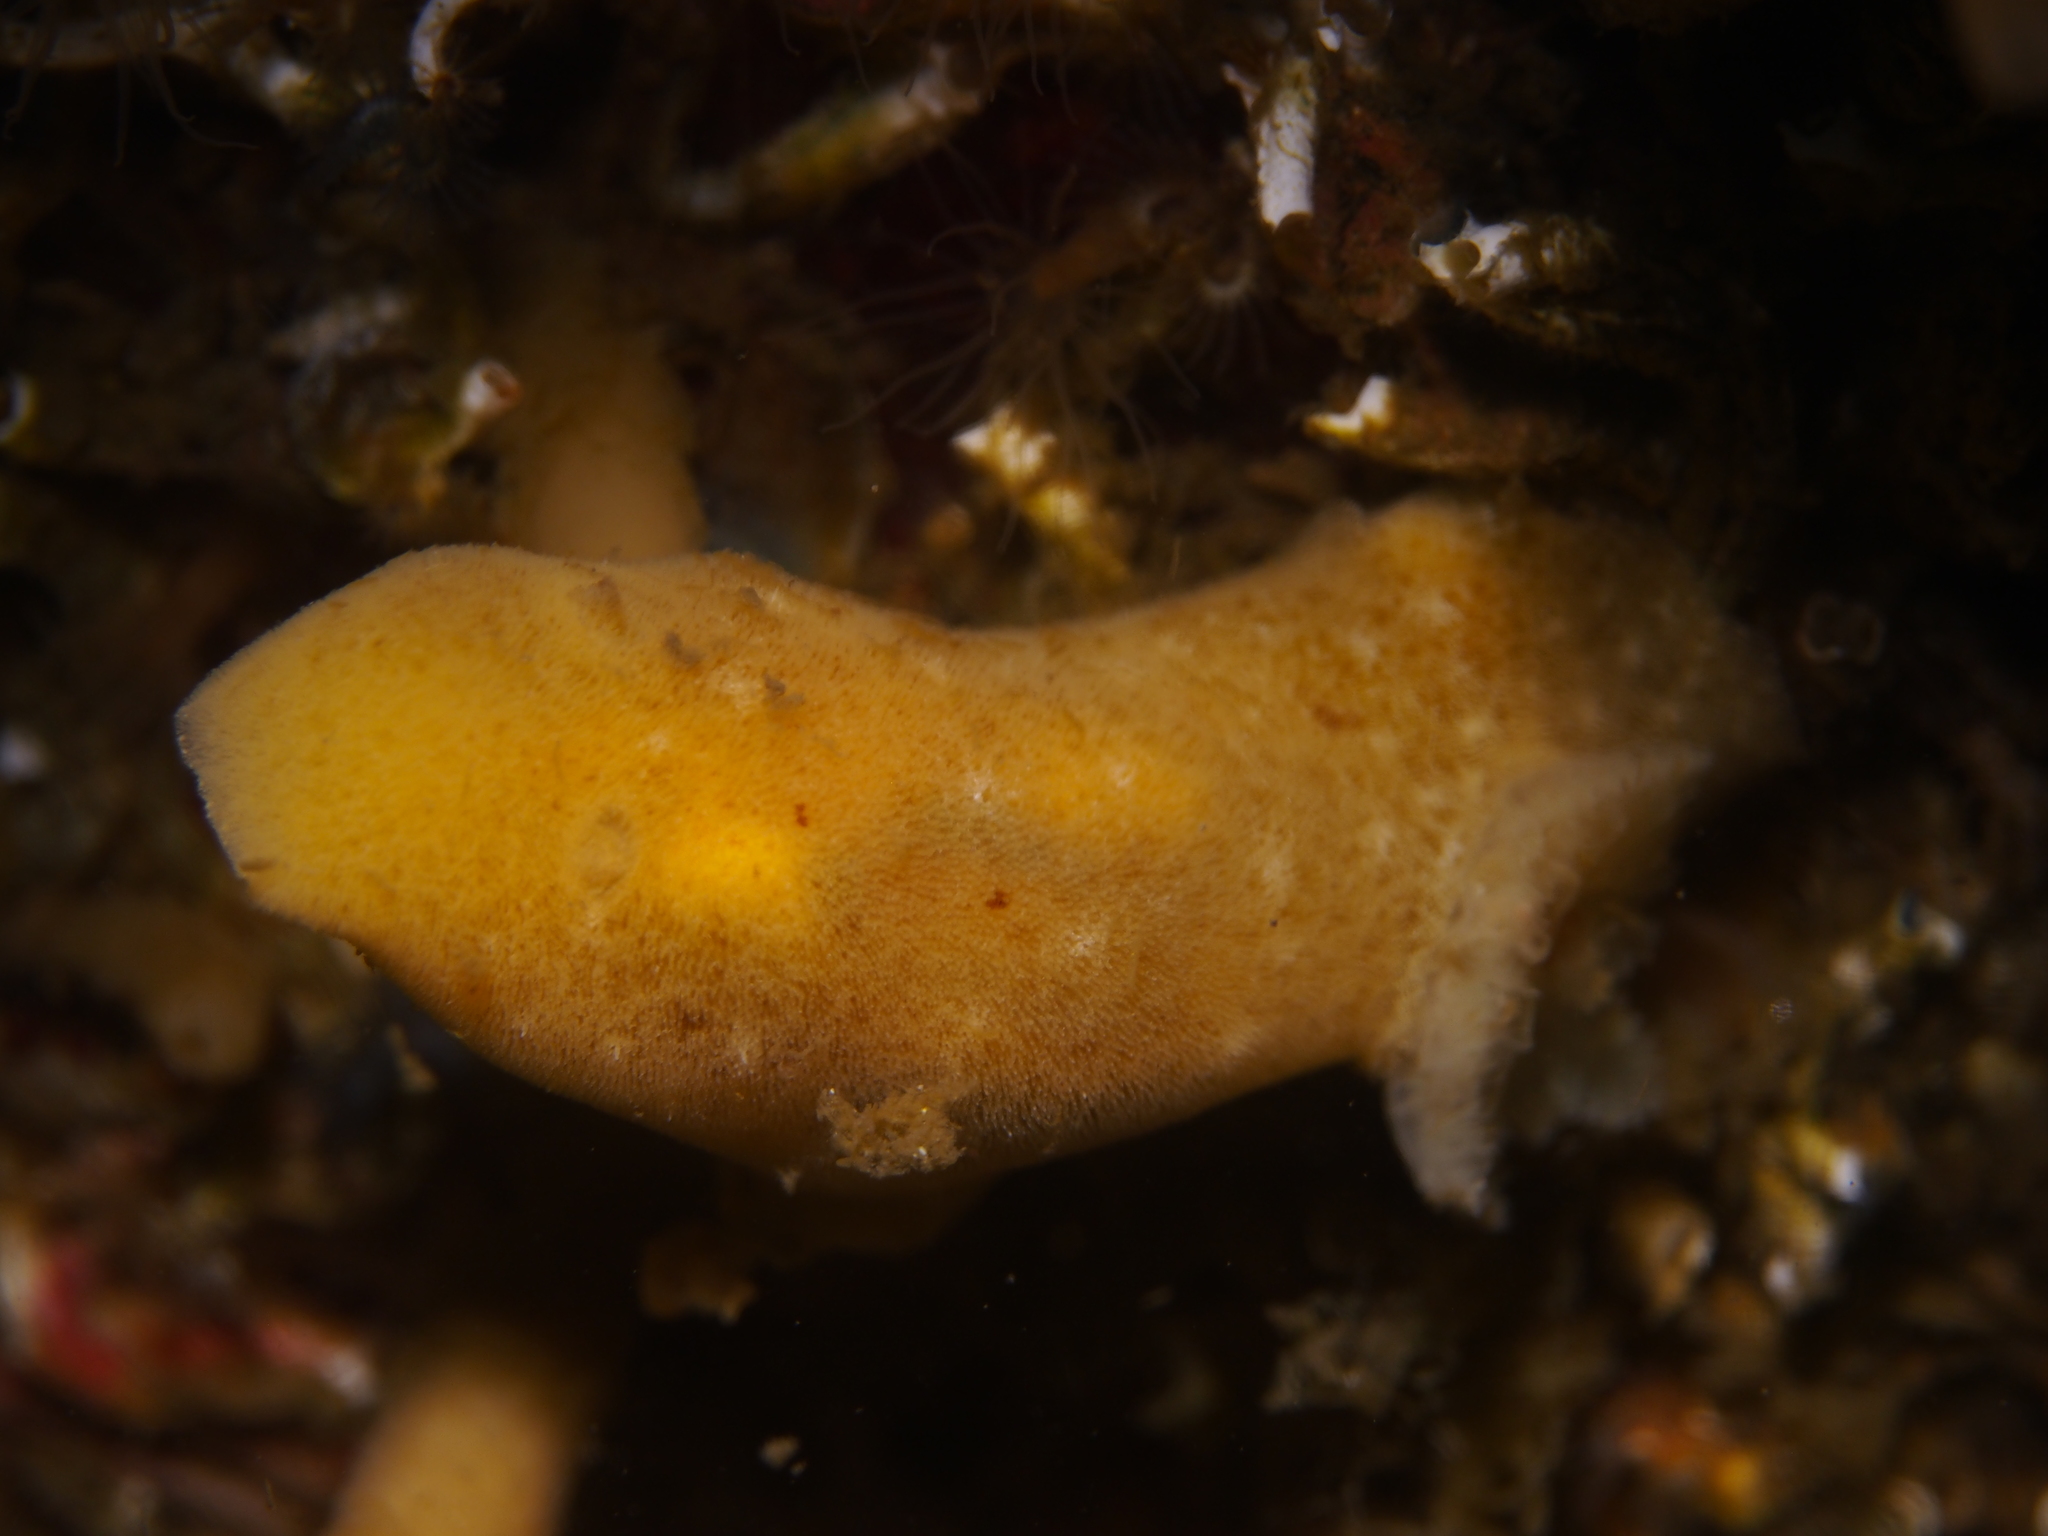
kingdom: Animalia
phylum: Mollusca
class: Gastropoda
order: Nudibranchia
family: Discodorididae
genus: Jorunna
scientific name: Jorunna tomentosa
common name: Grey sea slug
